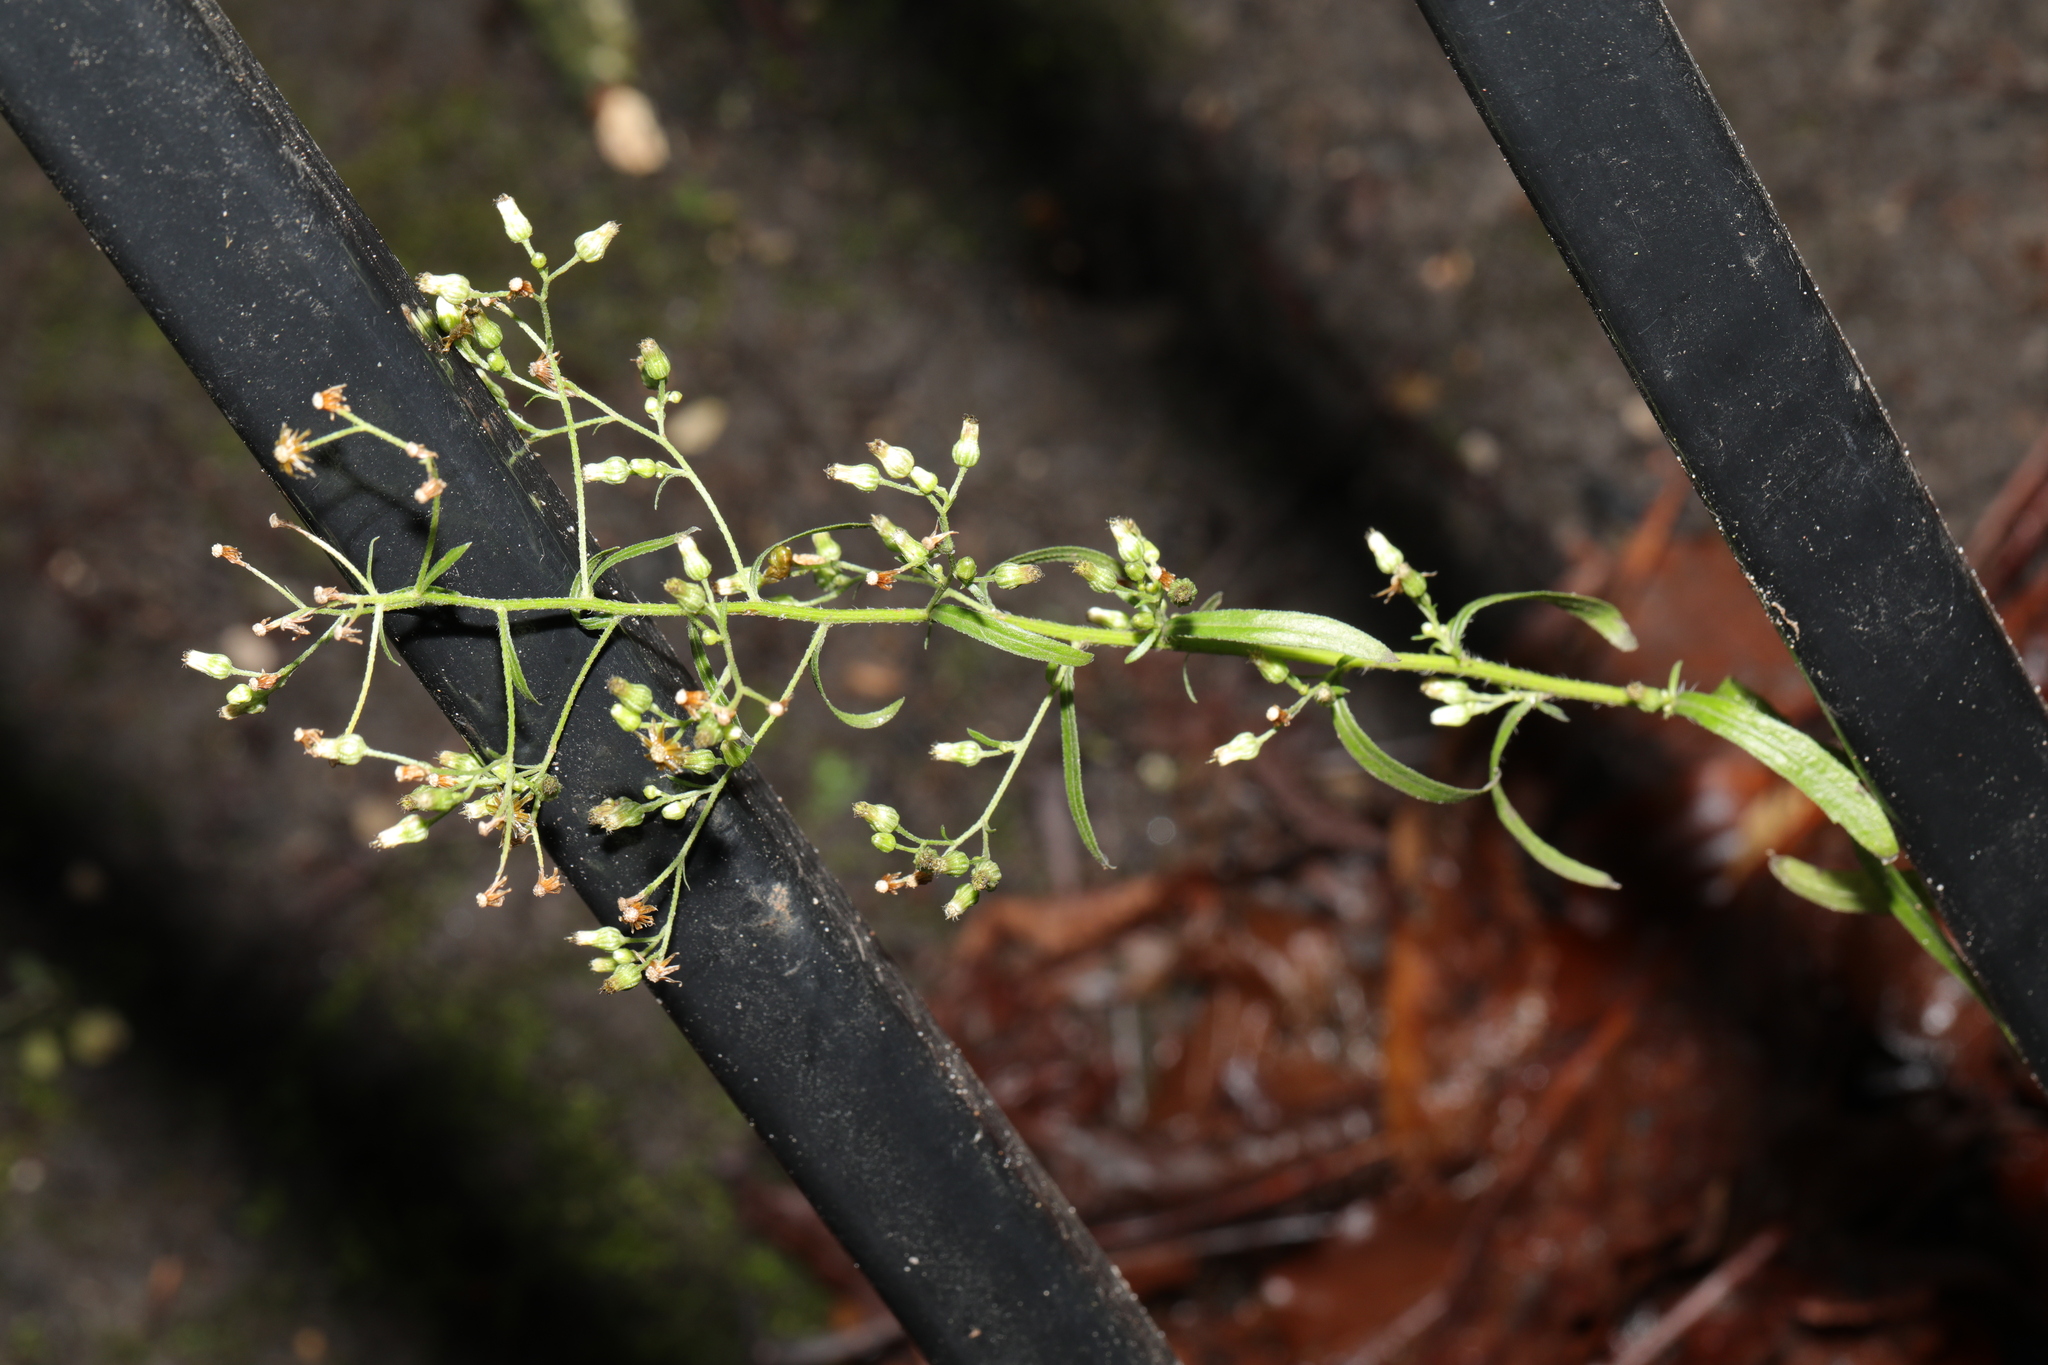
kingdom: Plantae
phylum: Tracheophyta
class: Magnoliopsida
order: Asterales
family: Asteraceae
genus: Erigeron
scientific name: Erigeron canadensis
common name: Canadian fleabane
